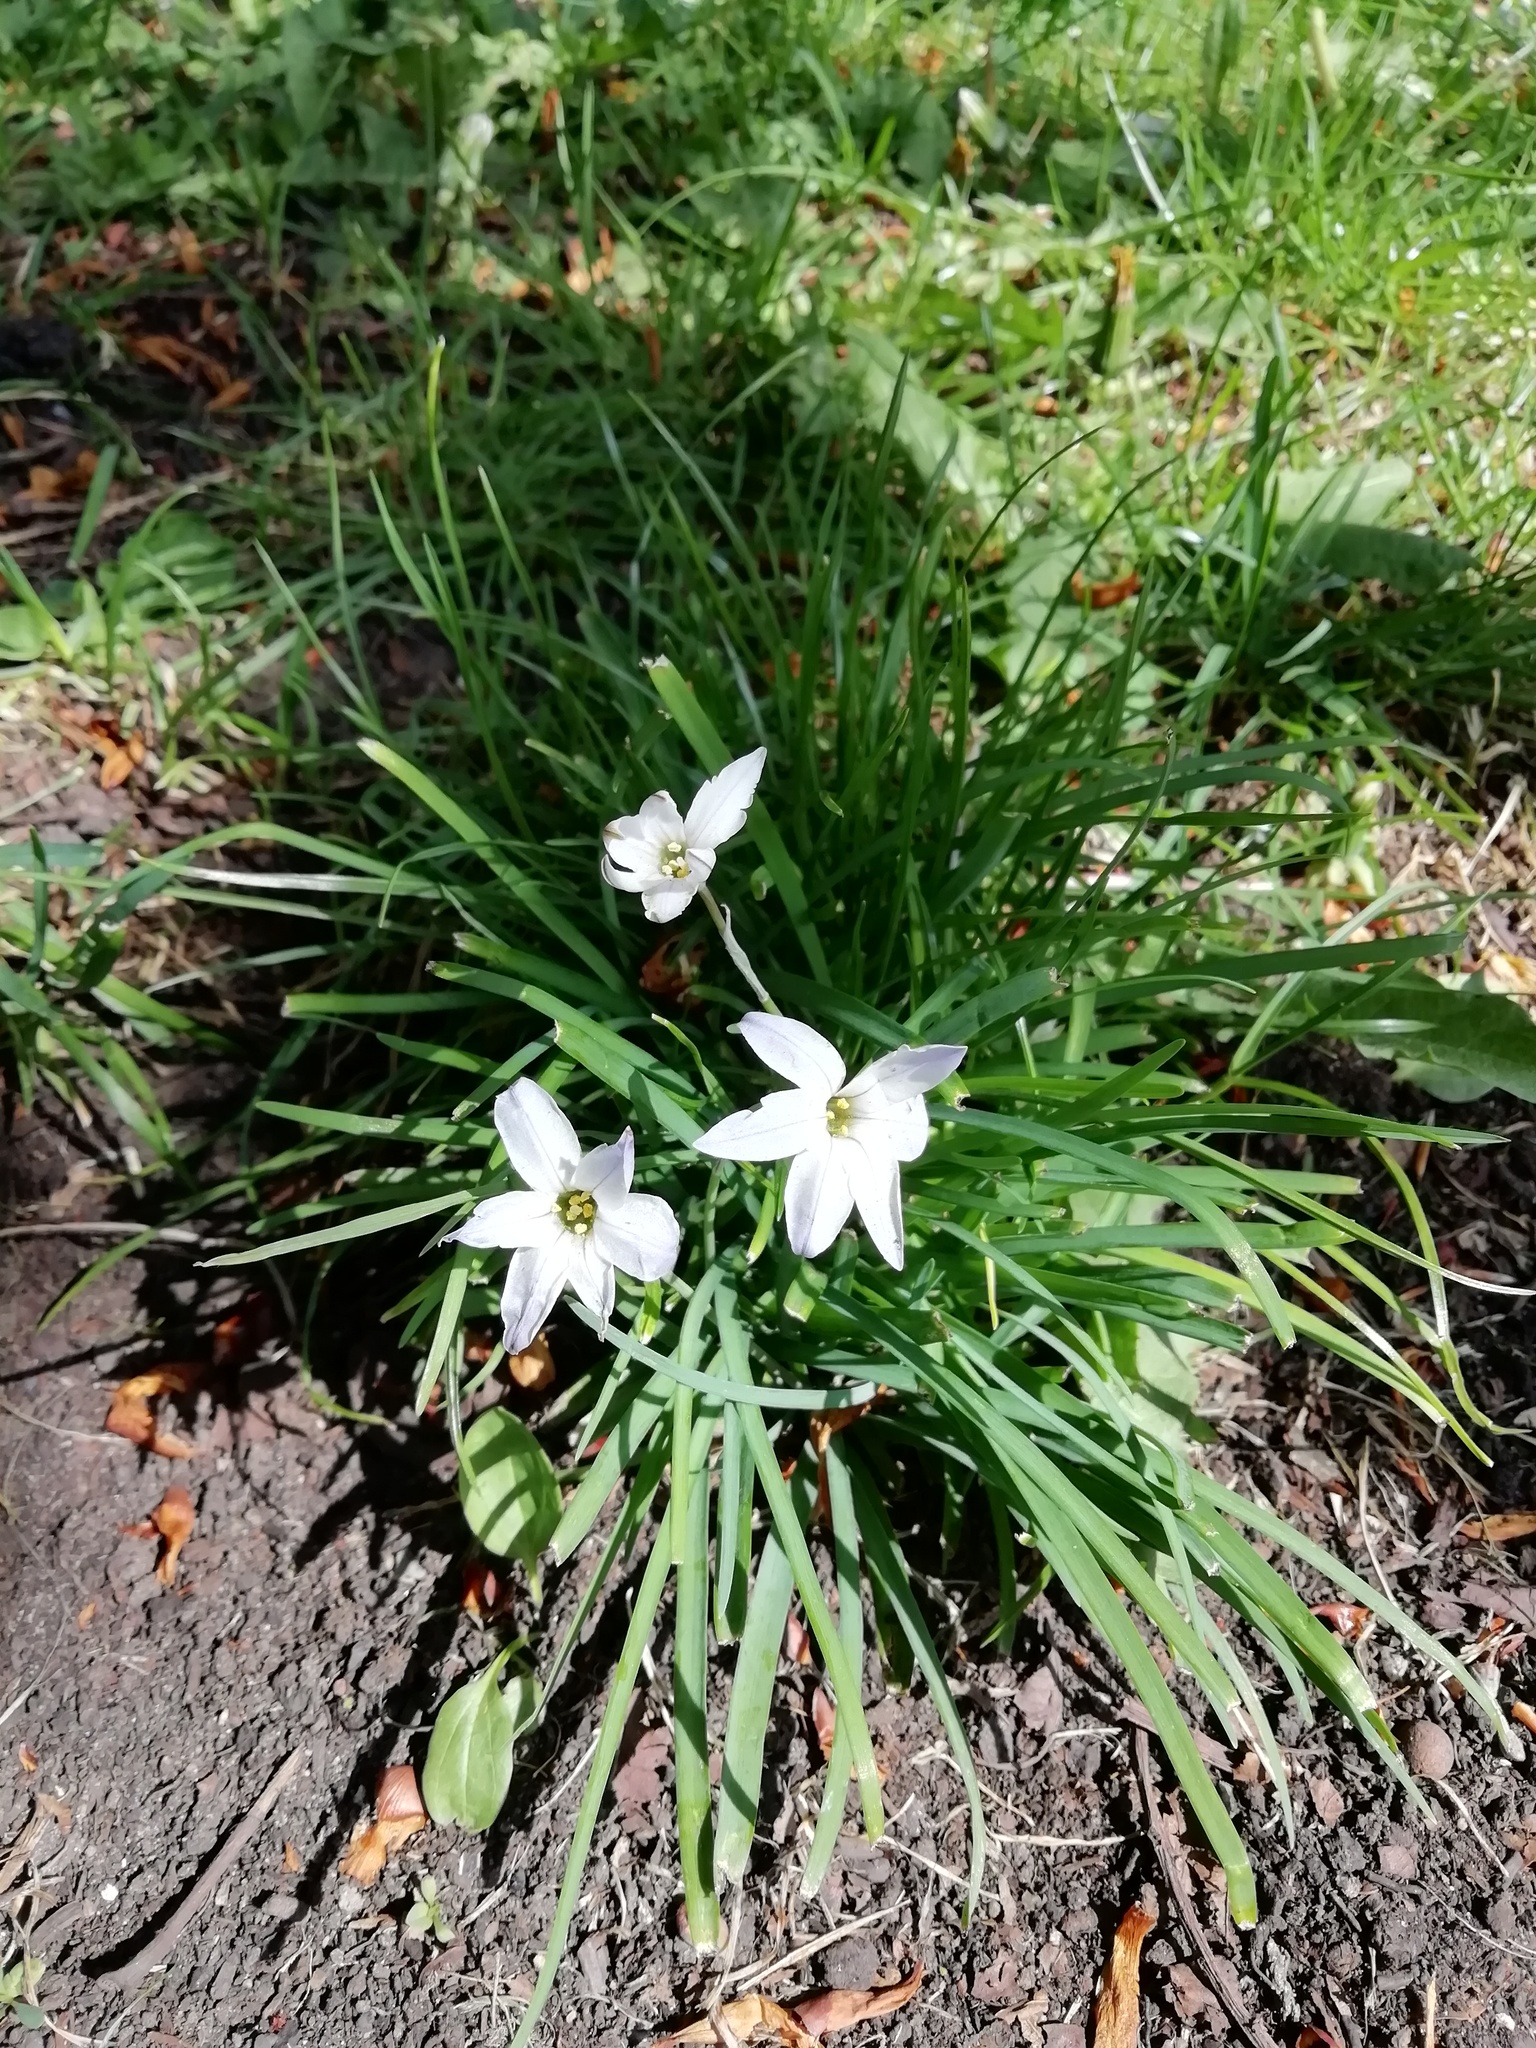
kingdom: Plantae
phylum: Tracheophyta
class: Liliopsida
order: Asparagales
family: Amaryllidaceae
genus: Ipheion
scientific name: Ipheion uniflorum
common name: Spring starflower
